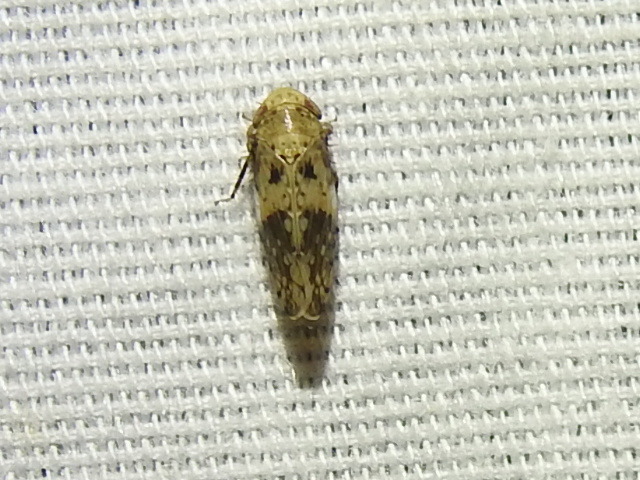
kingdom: Animalia
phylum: Arthropoda
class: Insecta
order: Hemiptera
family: Cicadellidae
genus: Menosoma
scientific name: Menosoma cinctum
